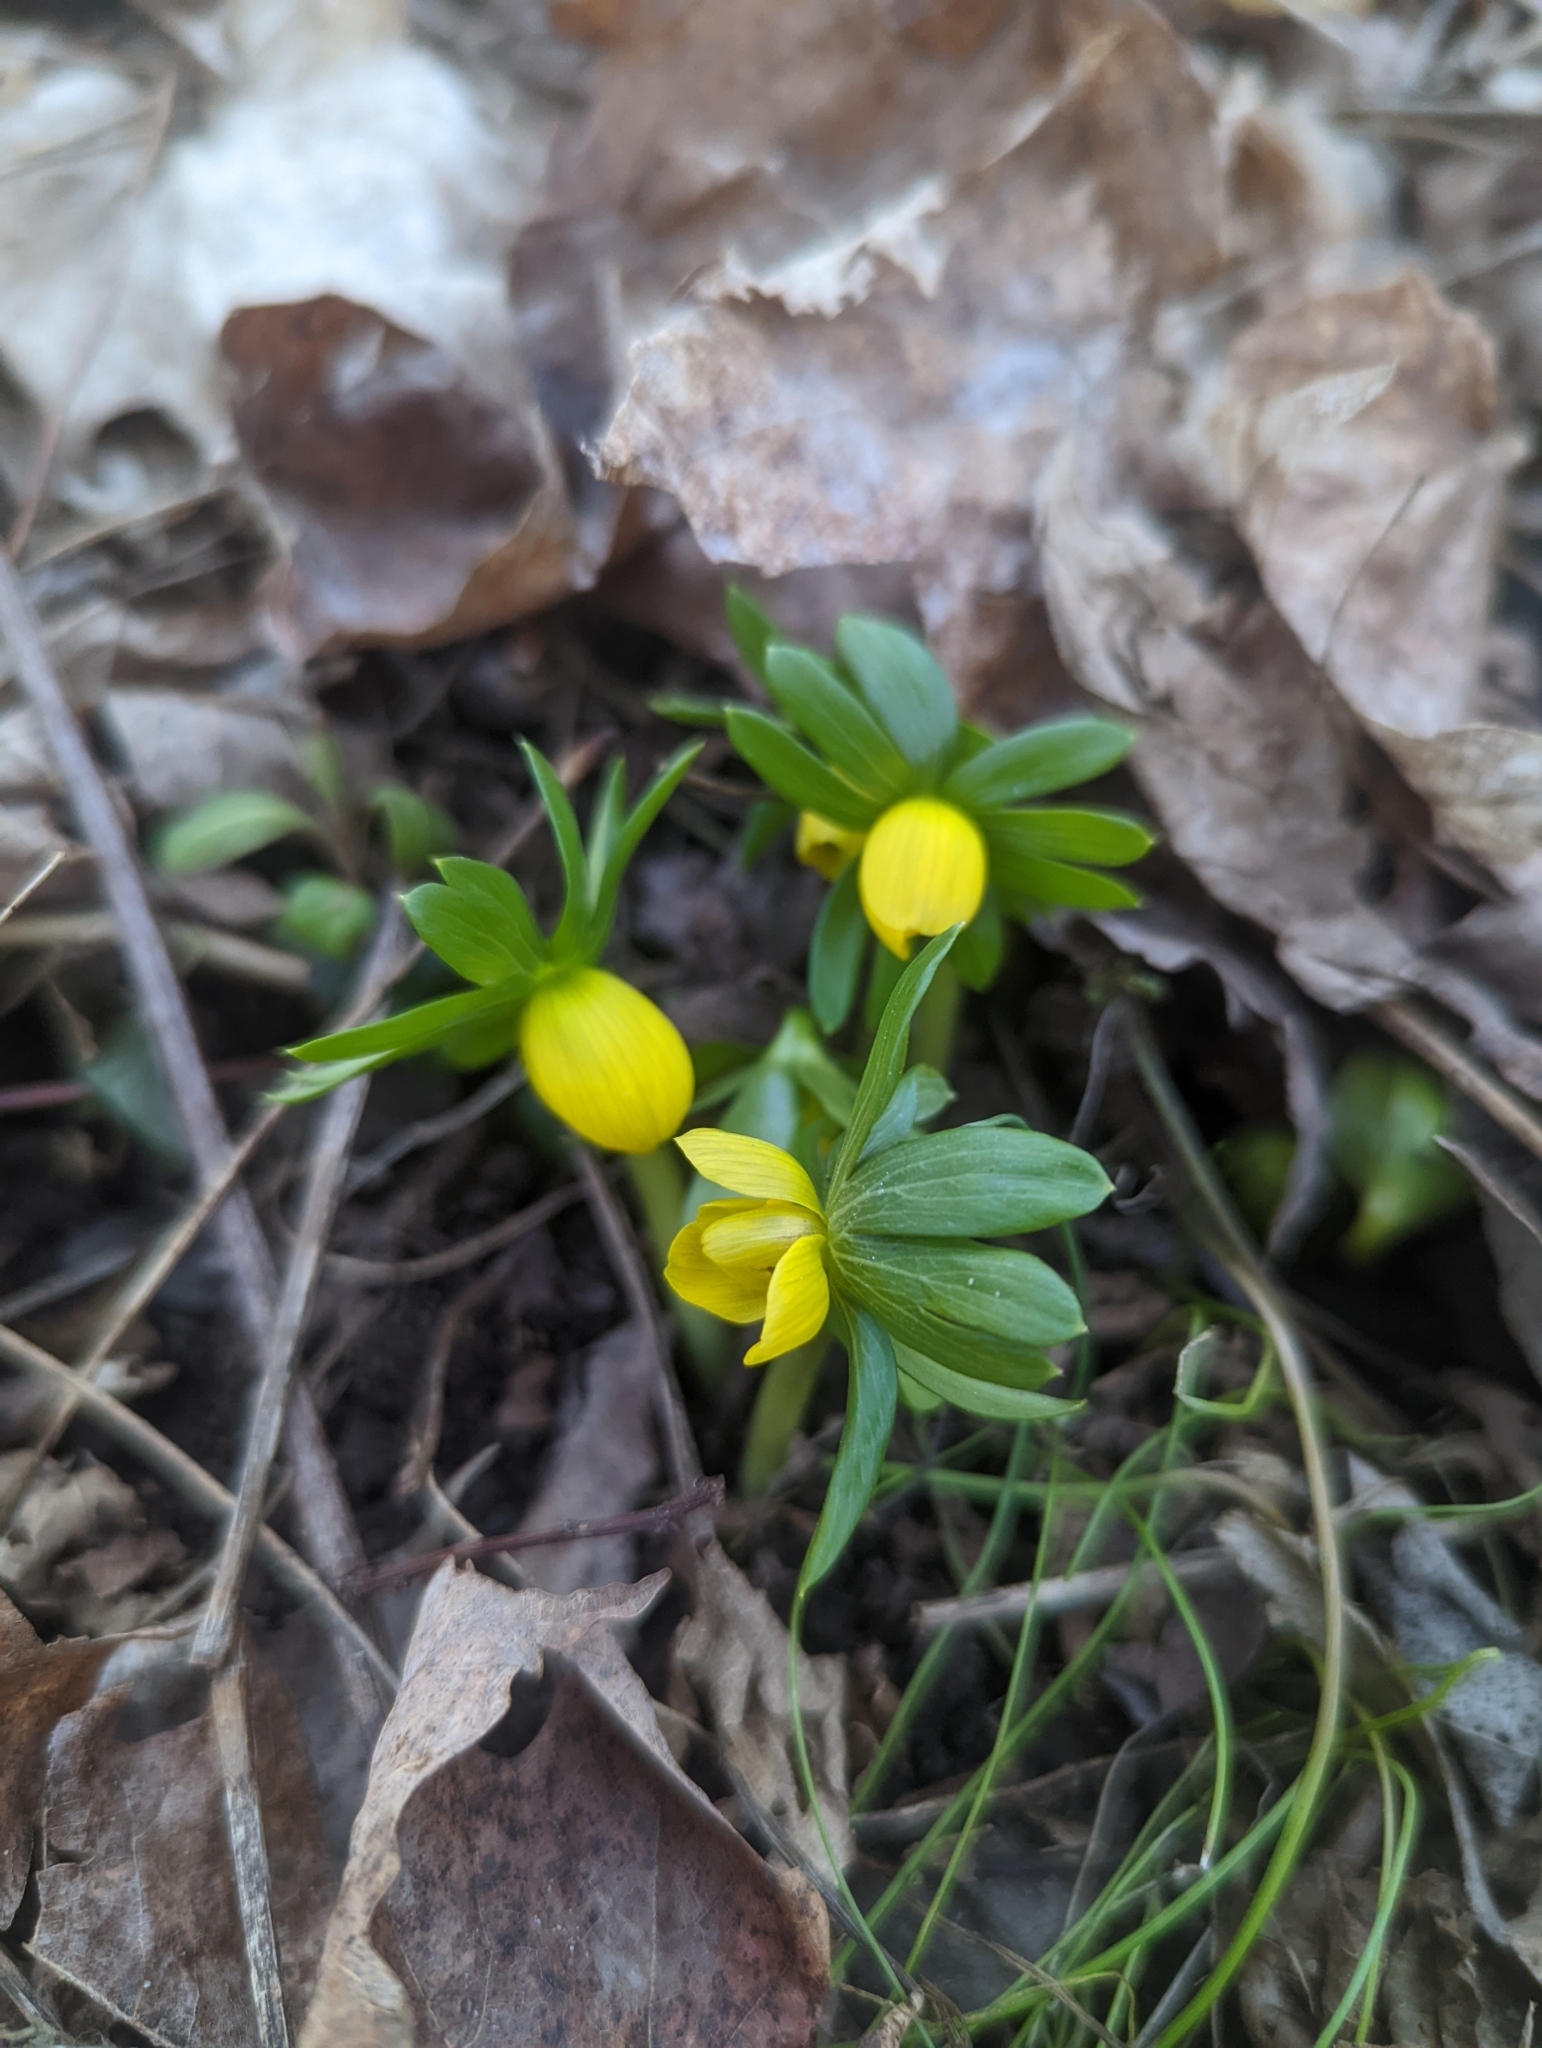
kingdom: Plantae
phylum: Tracheophyta
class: Magnoliopsida
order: Ranunculales
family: Ranunculaceae
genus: Eranthis
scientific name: Eranthis hyemalis
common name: Winter aconite
